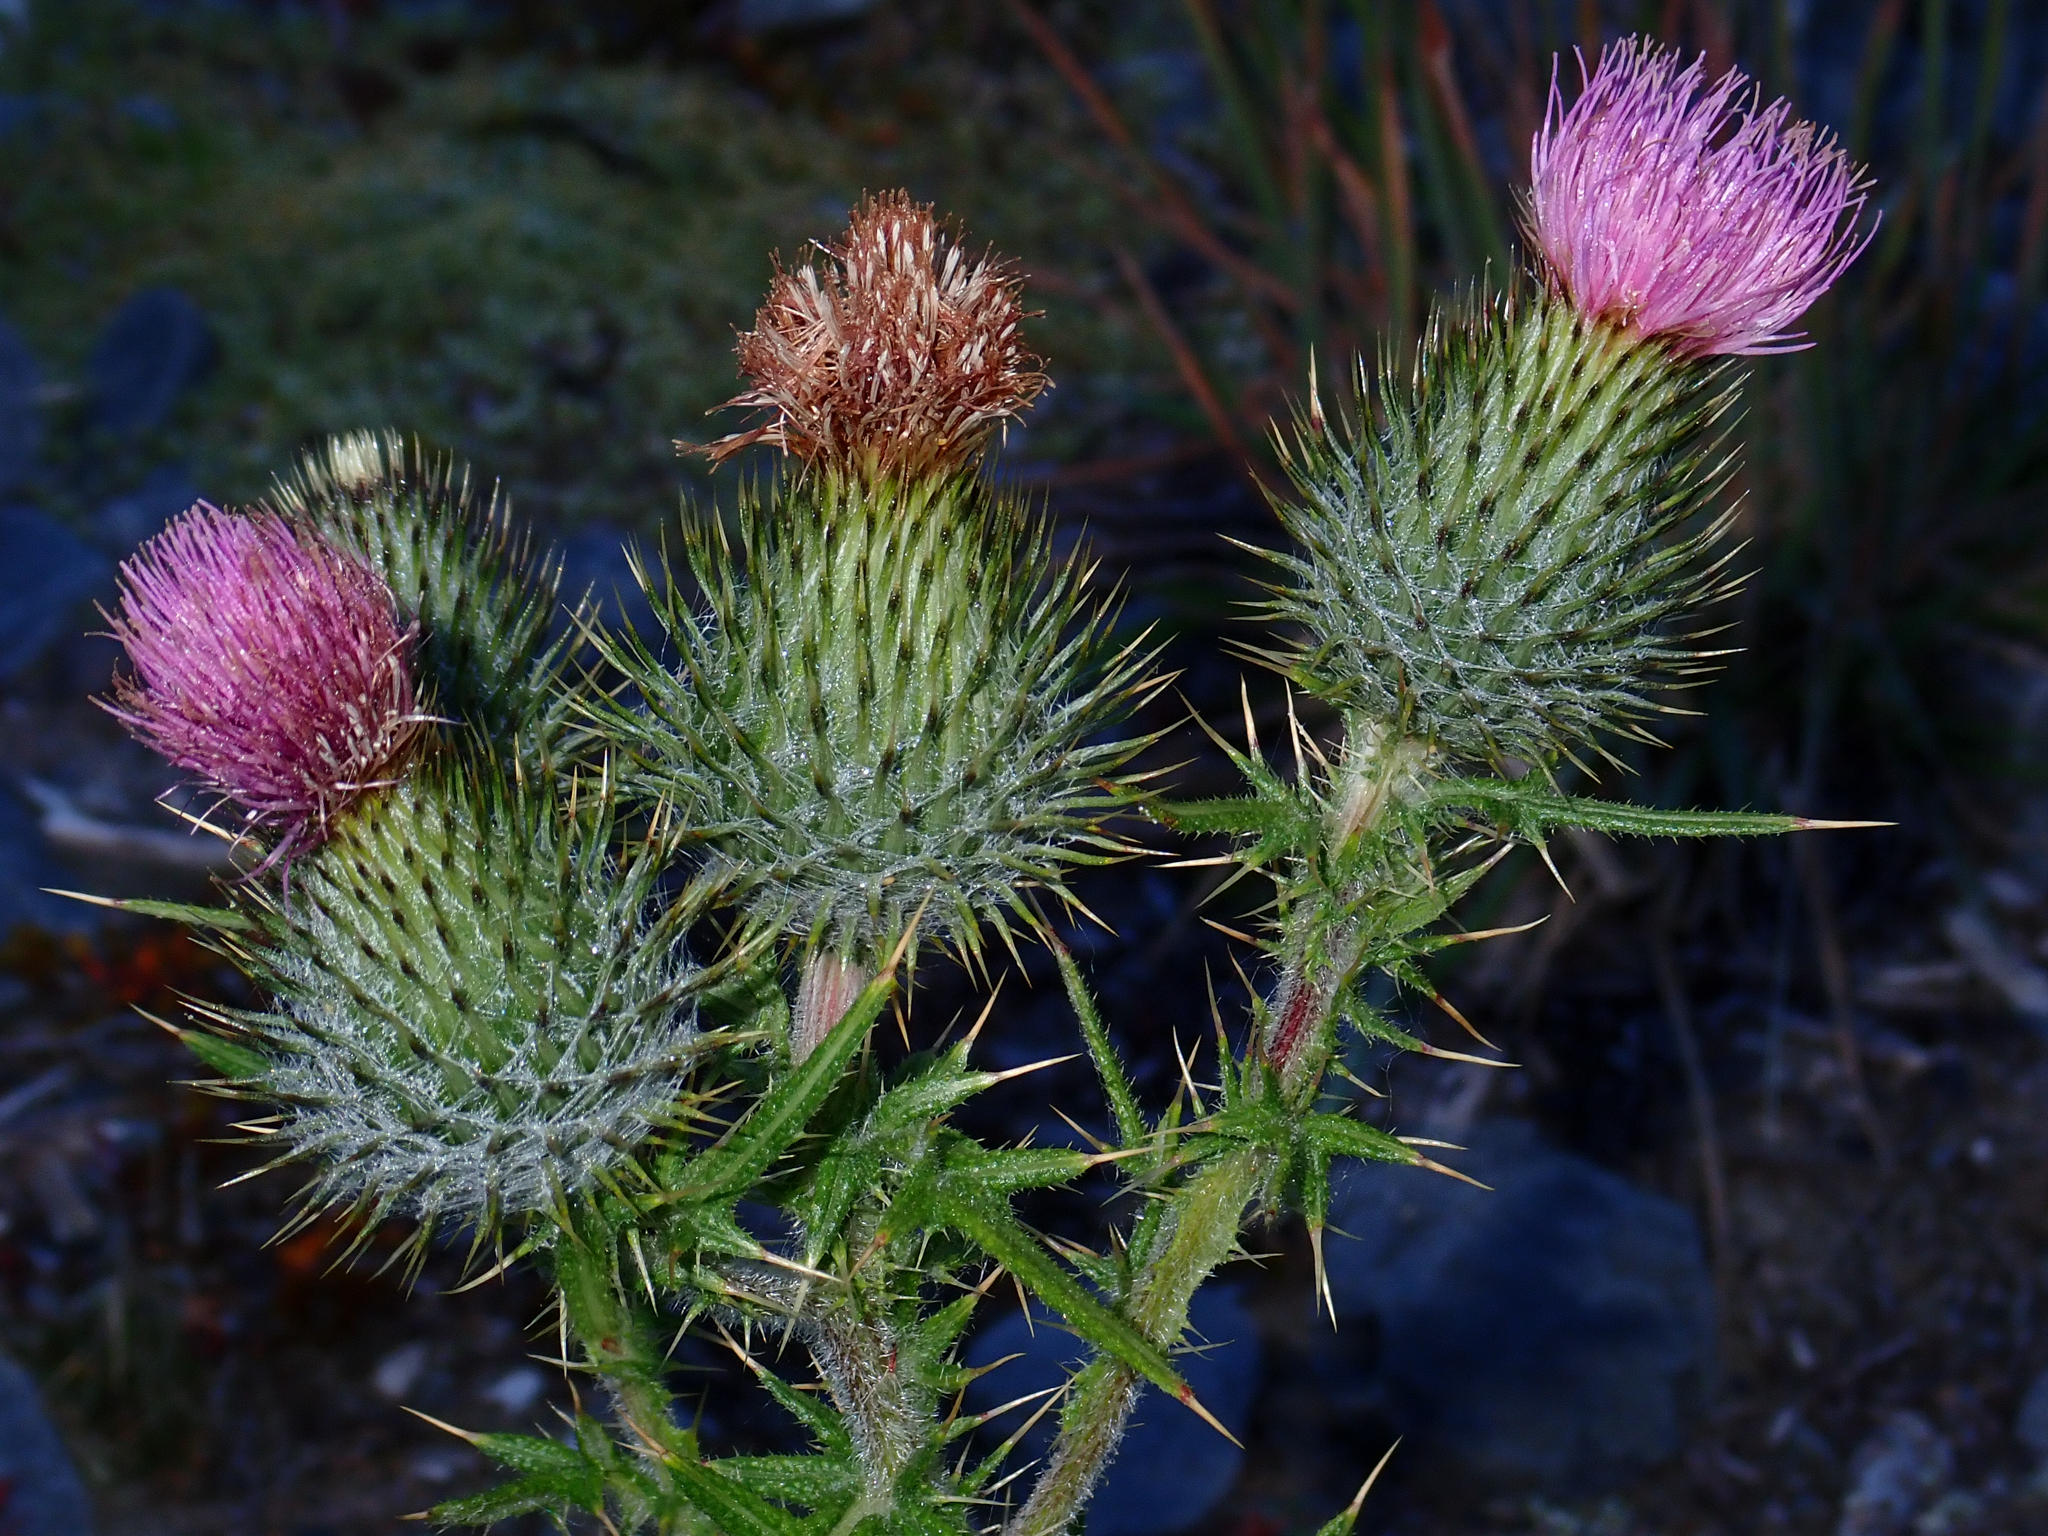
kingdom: Plantae
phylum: Tracheophyta
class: Magnoliopsida
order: Asterales
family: Asteraceae
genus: Cirsium
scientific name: Cirsium vulgare
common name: Bull thistle
